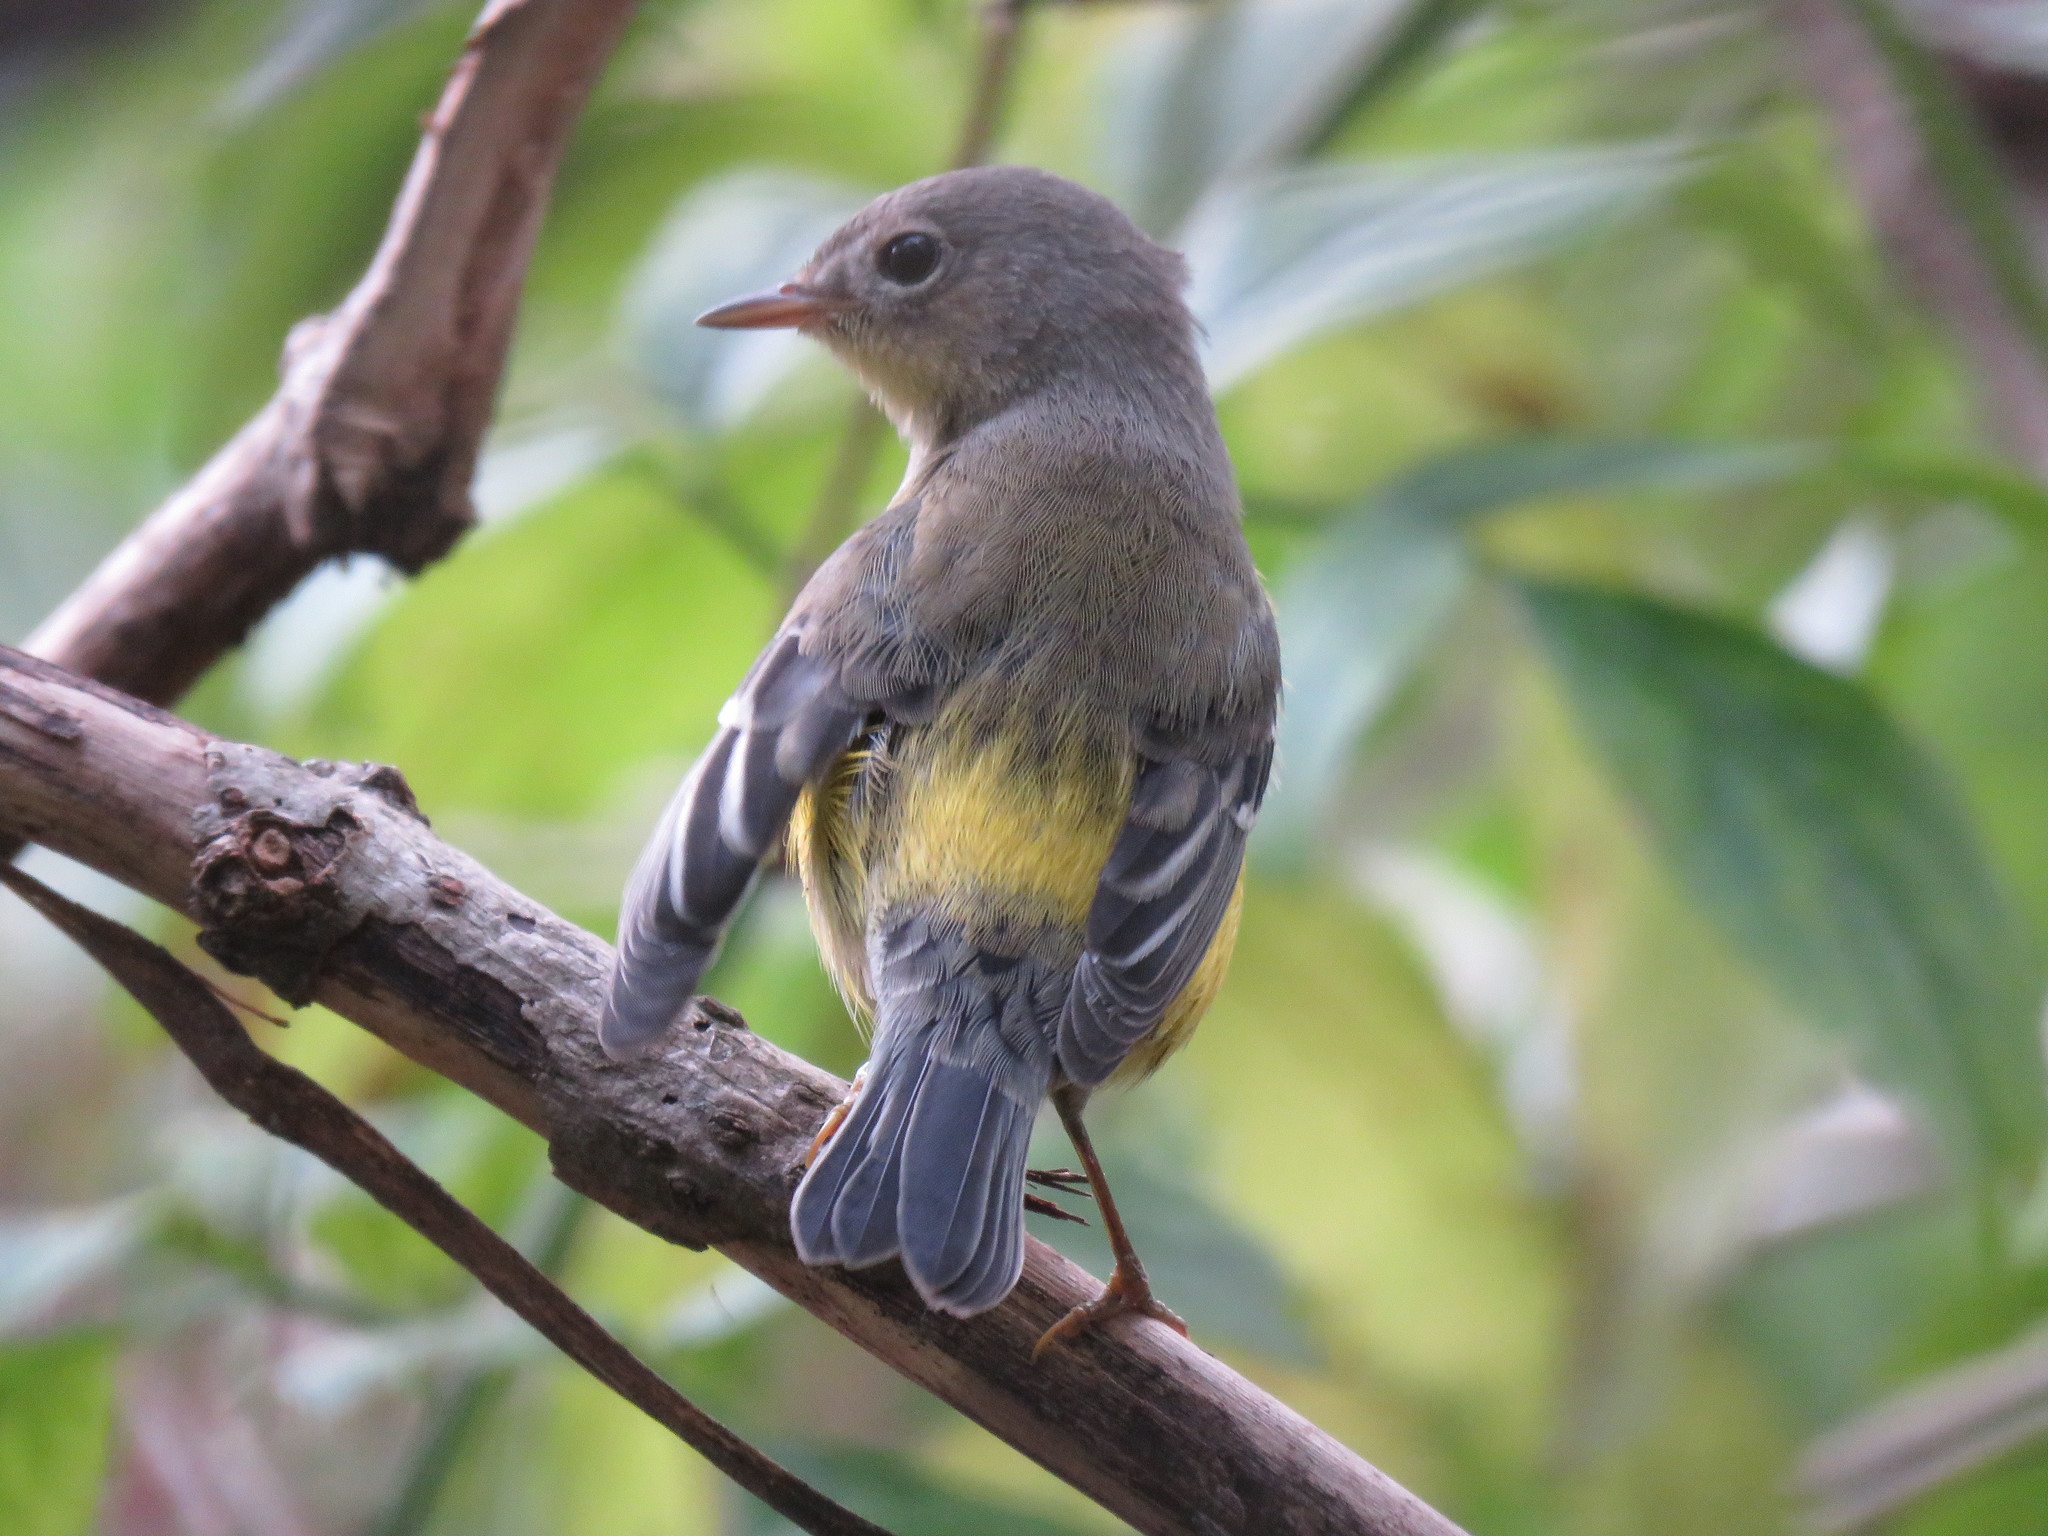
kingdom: Animalia
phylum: Chordata
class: Aves
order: Passeriformes
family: Parulidae
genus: Setophaga
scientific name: Setophaga magnolia
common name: Magnolia warbler
